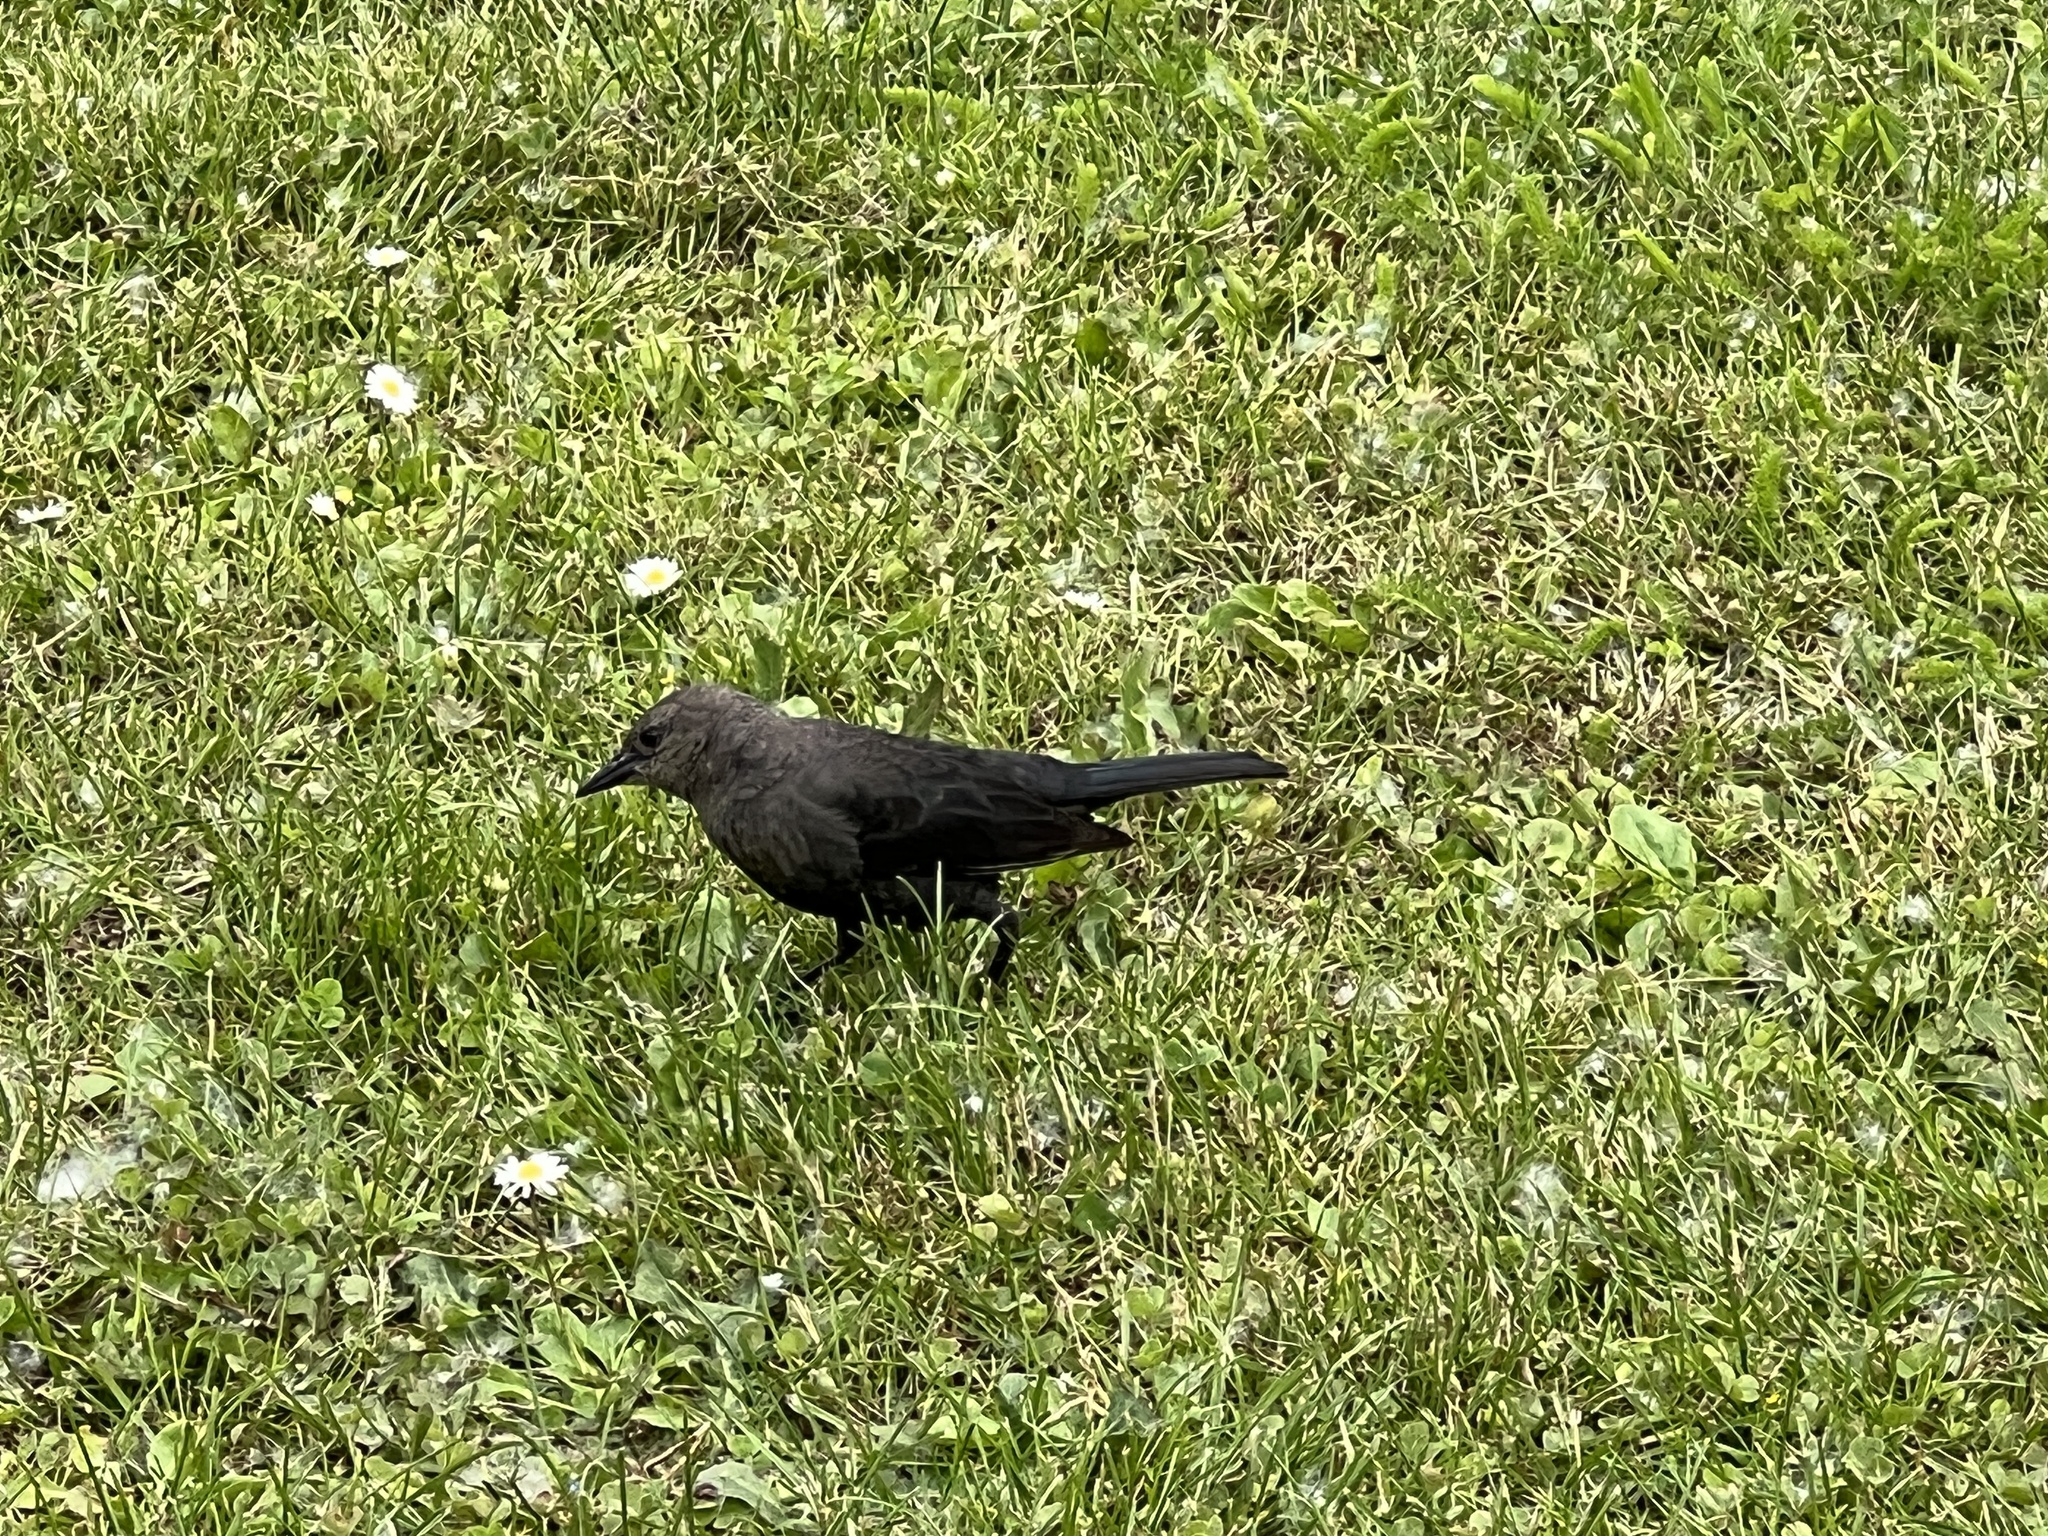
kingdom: Animalia
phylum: Chordata
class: Aves
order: Passeriformes
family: Icteridae
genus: Euphagus
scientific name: Euphagus cyanocephalus
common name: Brewer's blackbird
